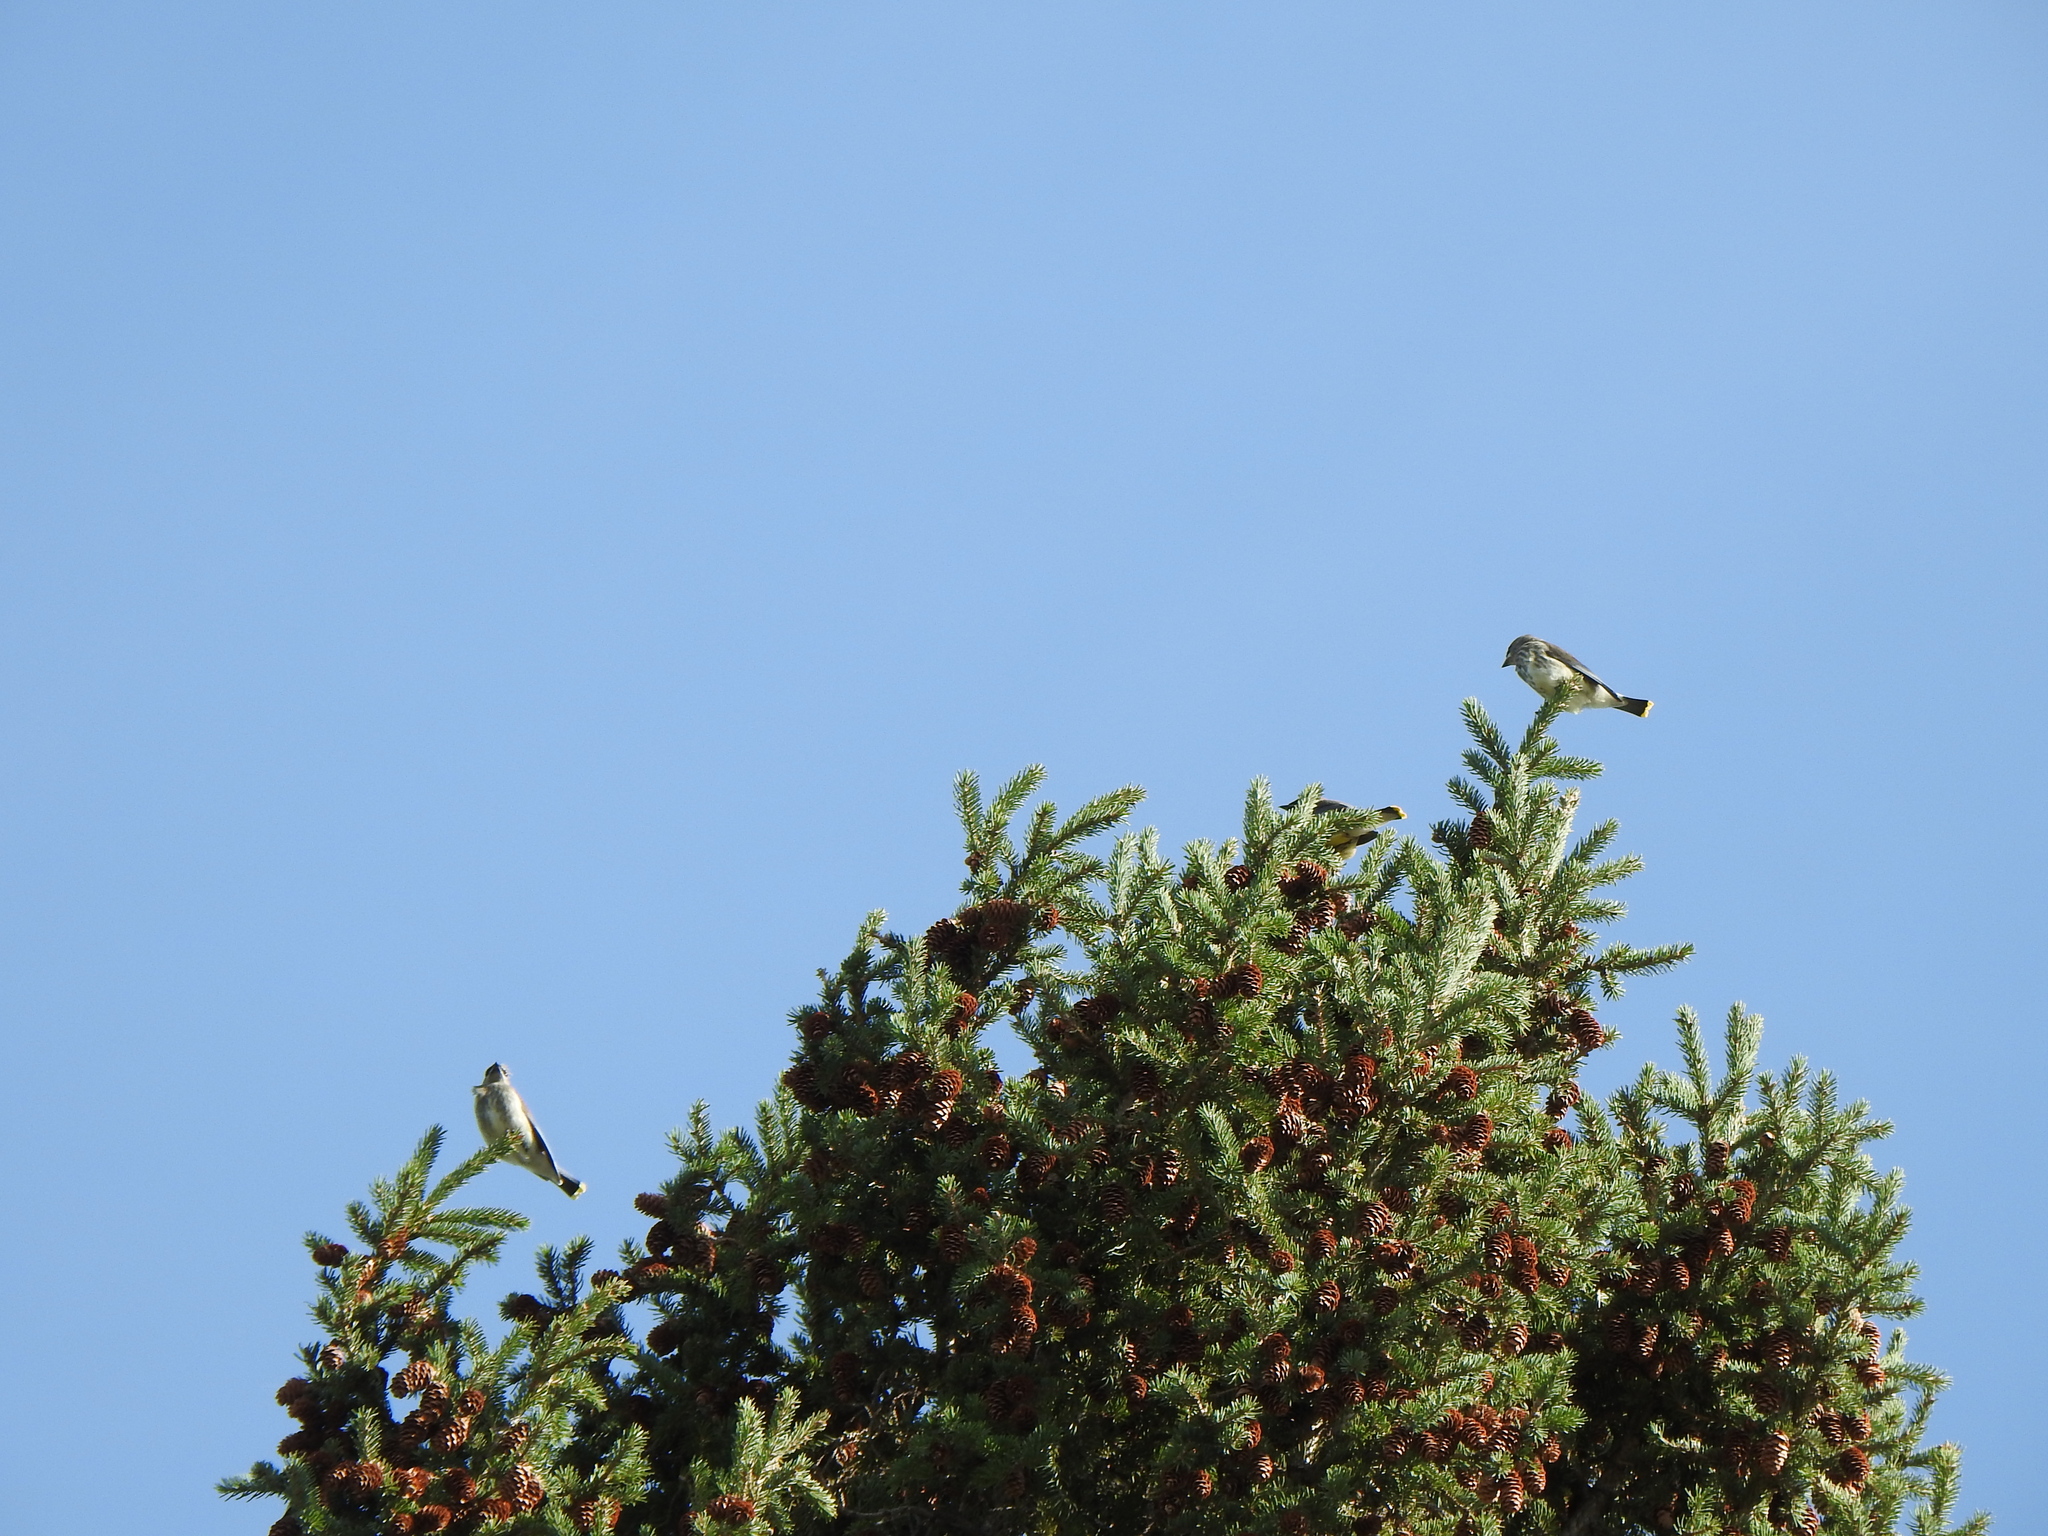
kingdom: Animalia
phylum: Chordata
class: Aves
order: Passeriformes
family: Bombycillidae
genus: Bombycilla
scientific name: Bombycilla cedrorum
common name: Cedar waxwing
